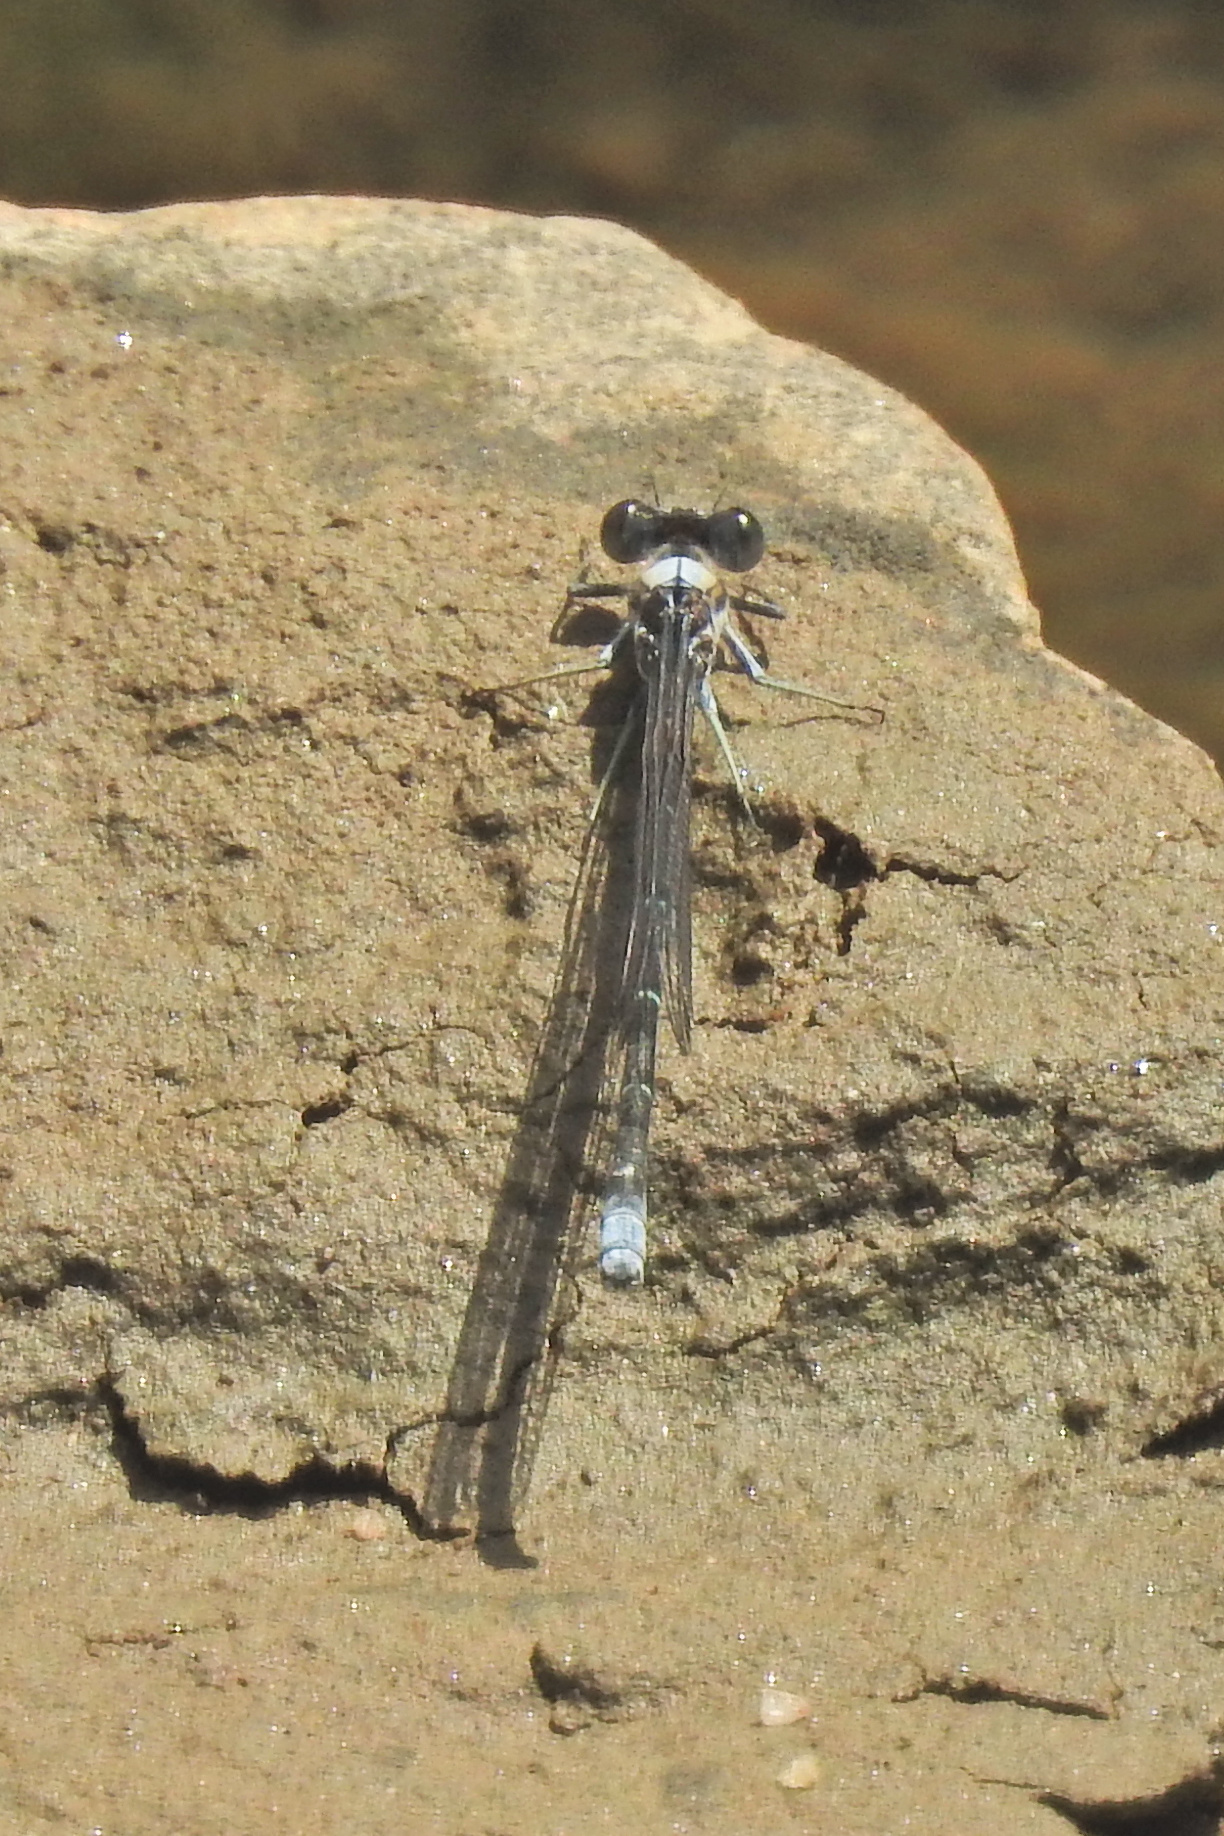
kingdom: Animalia
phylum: Arthropoda
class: Insecta
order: Odonata
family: Coenagrionidae
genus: Argia
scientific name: Argia moesta
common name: Powdered dancer
